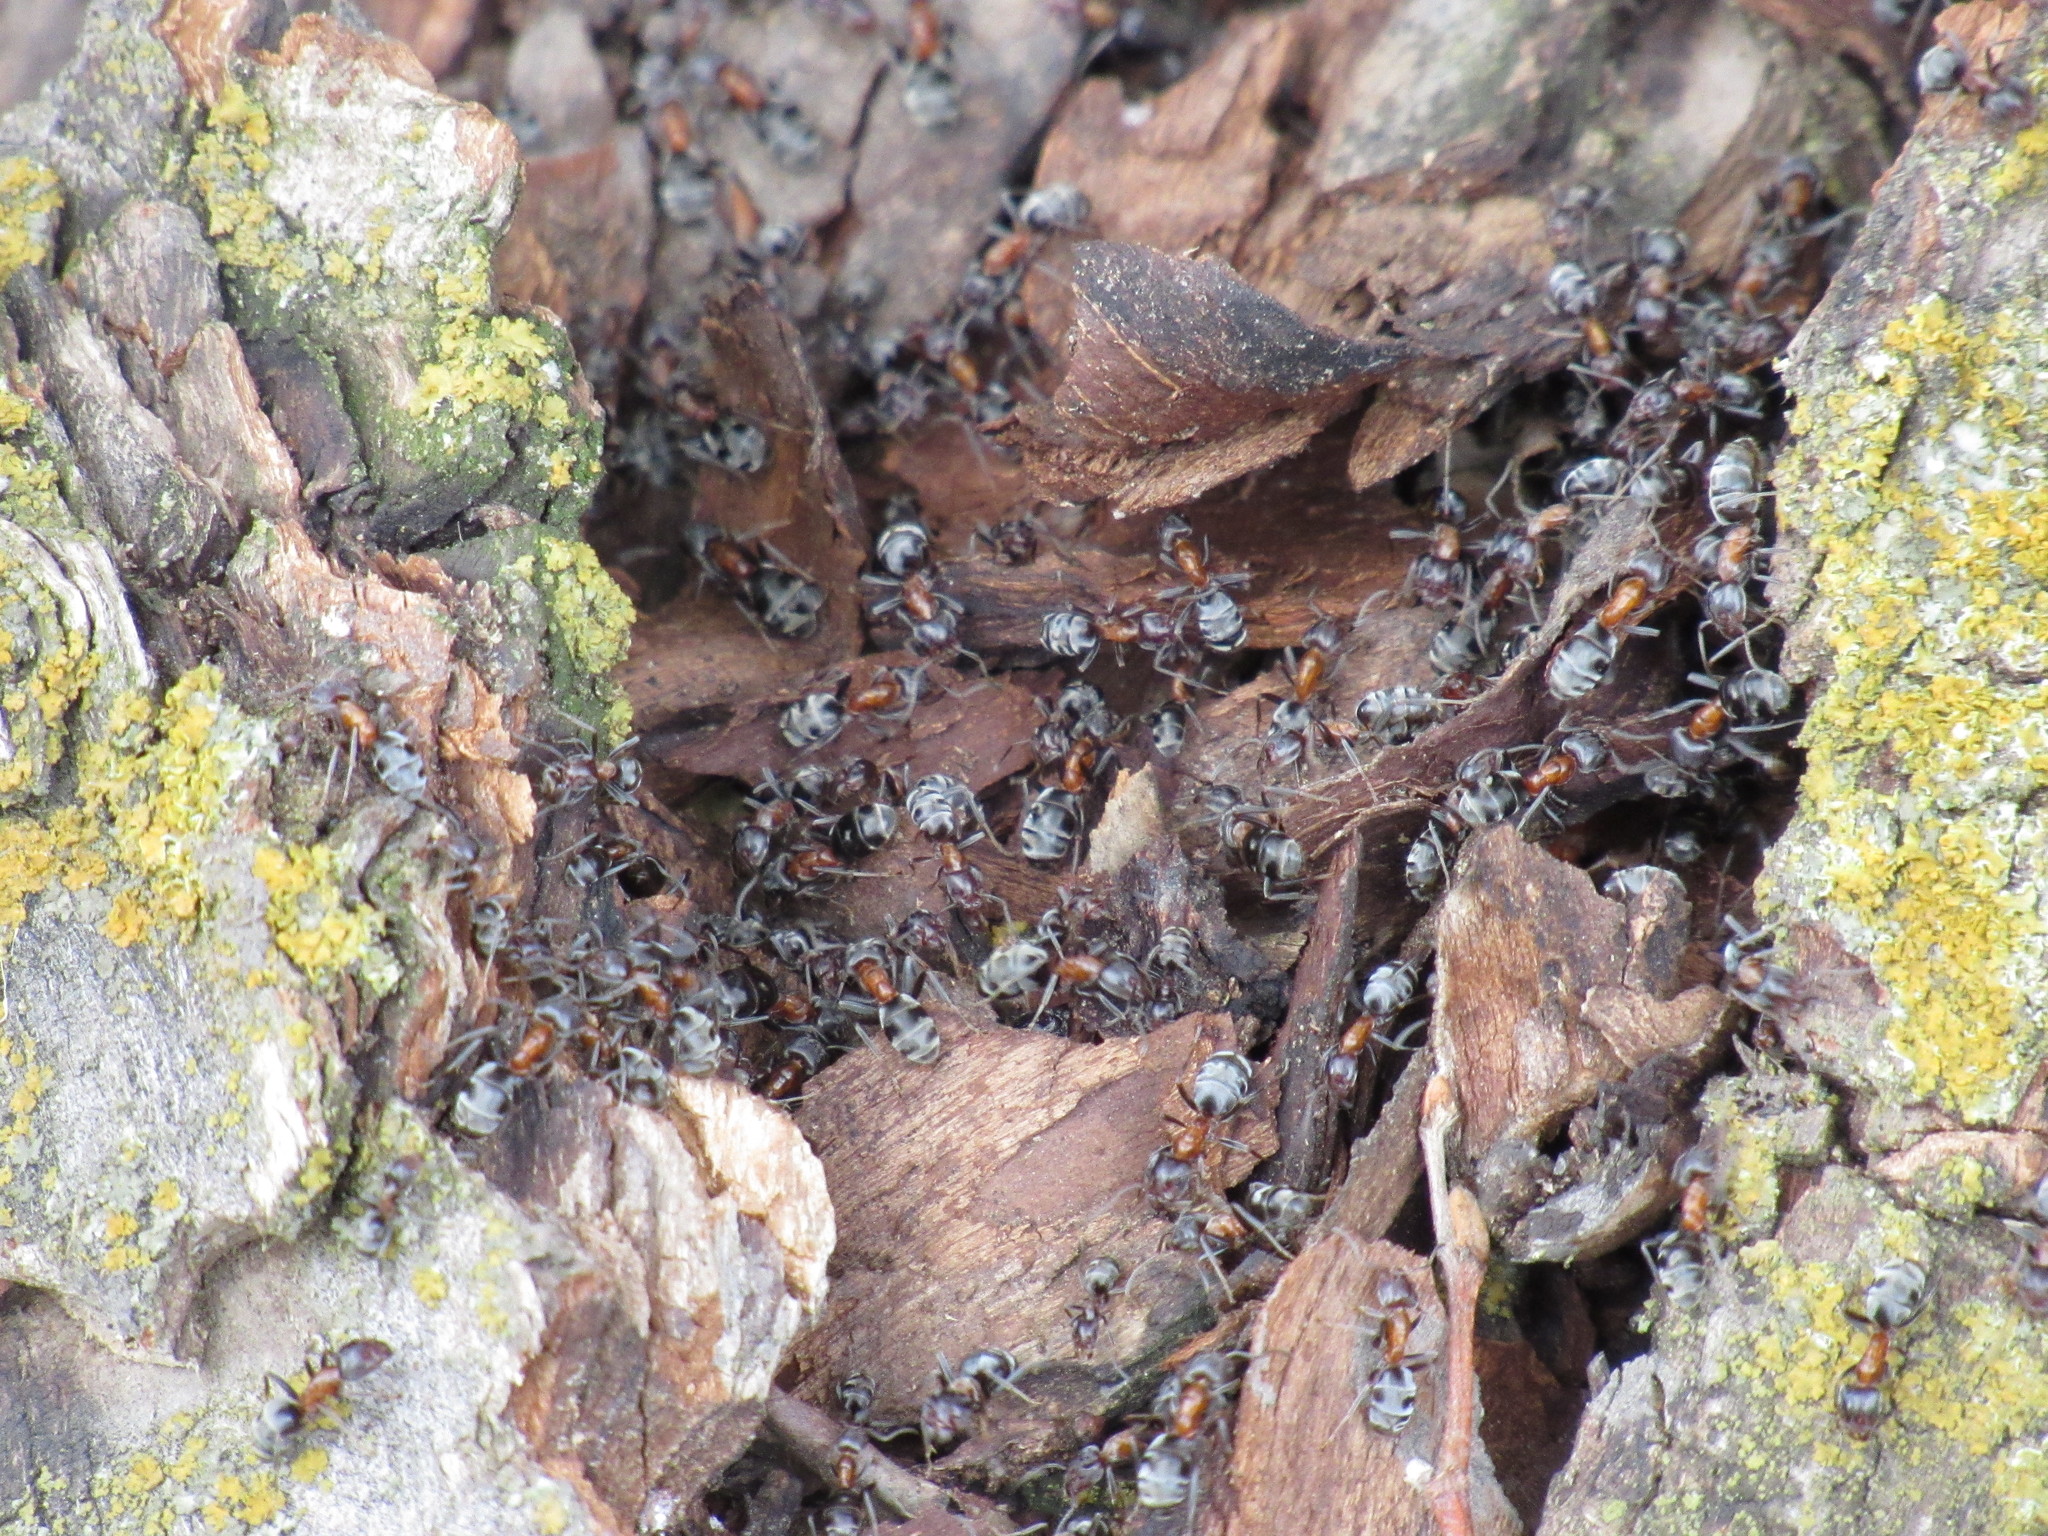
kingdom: Animalia
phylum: Arthropoda
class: Insecta
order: Hymenoptera
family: Formicidae
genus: Liometopum
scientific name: Liometopum microcephalum
